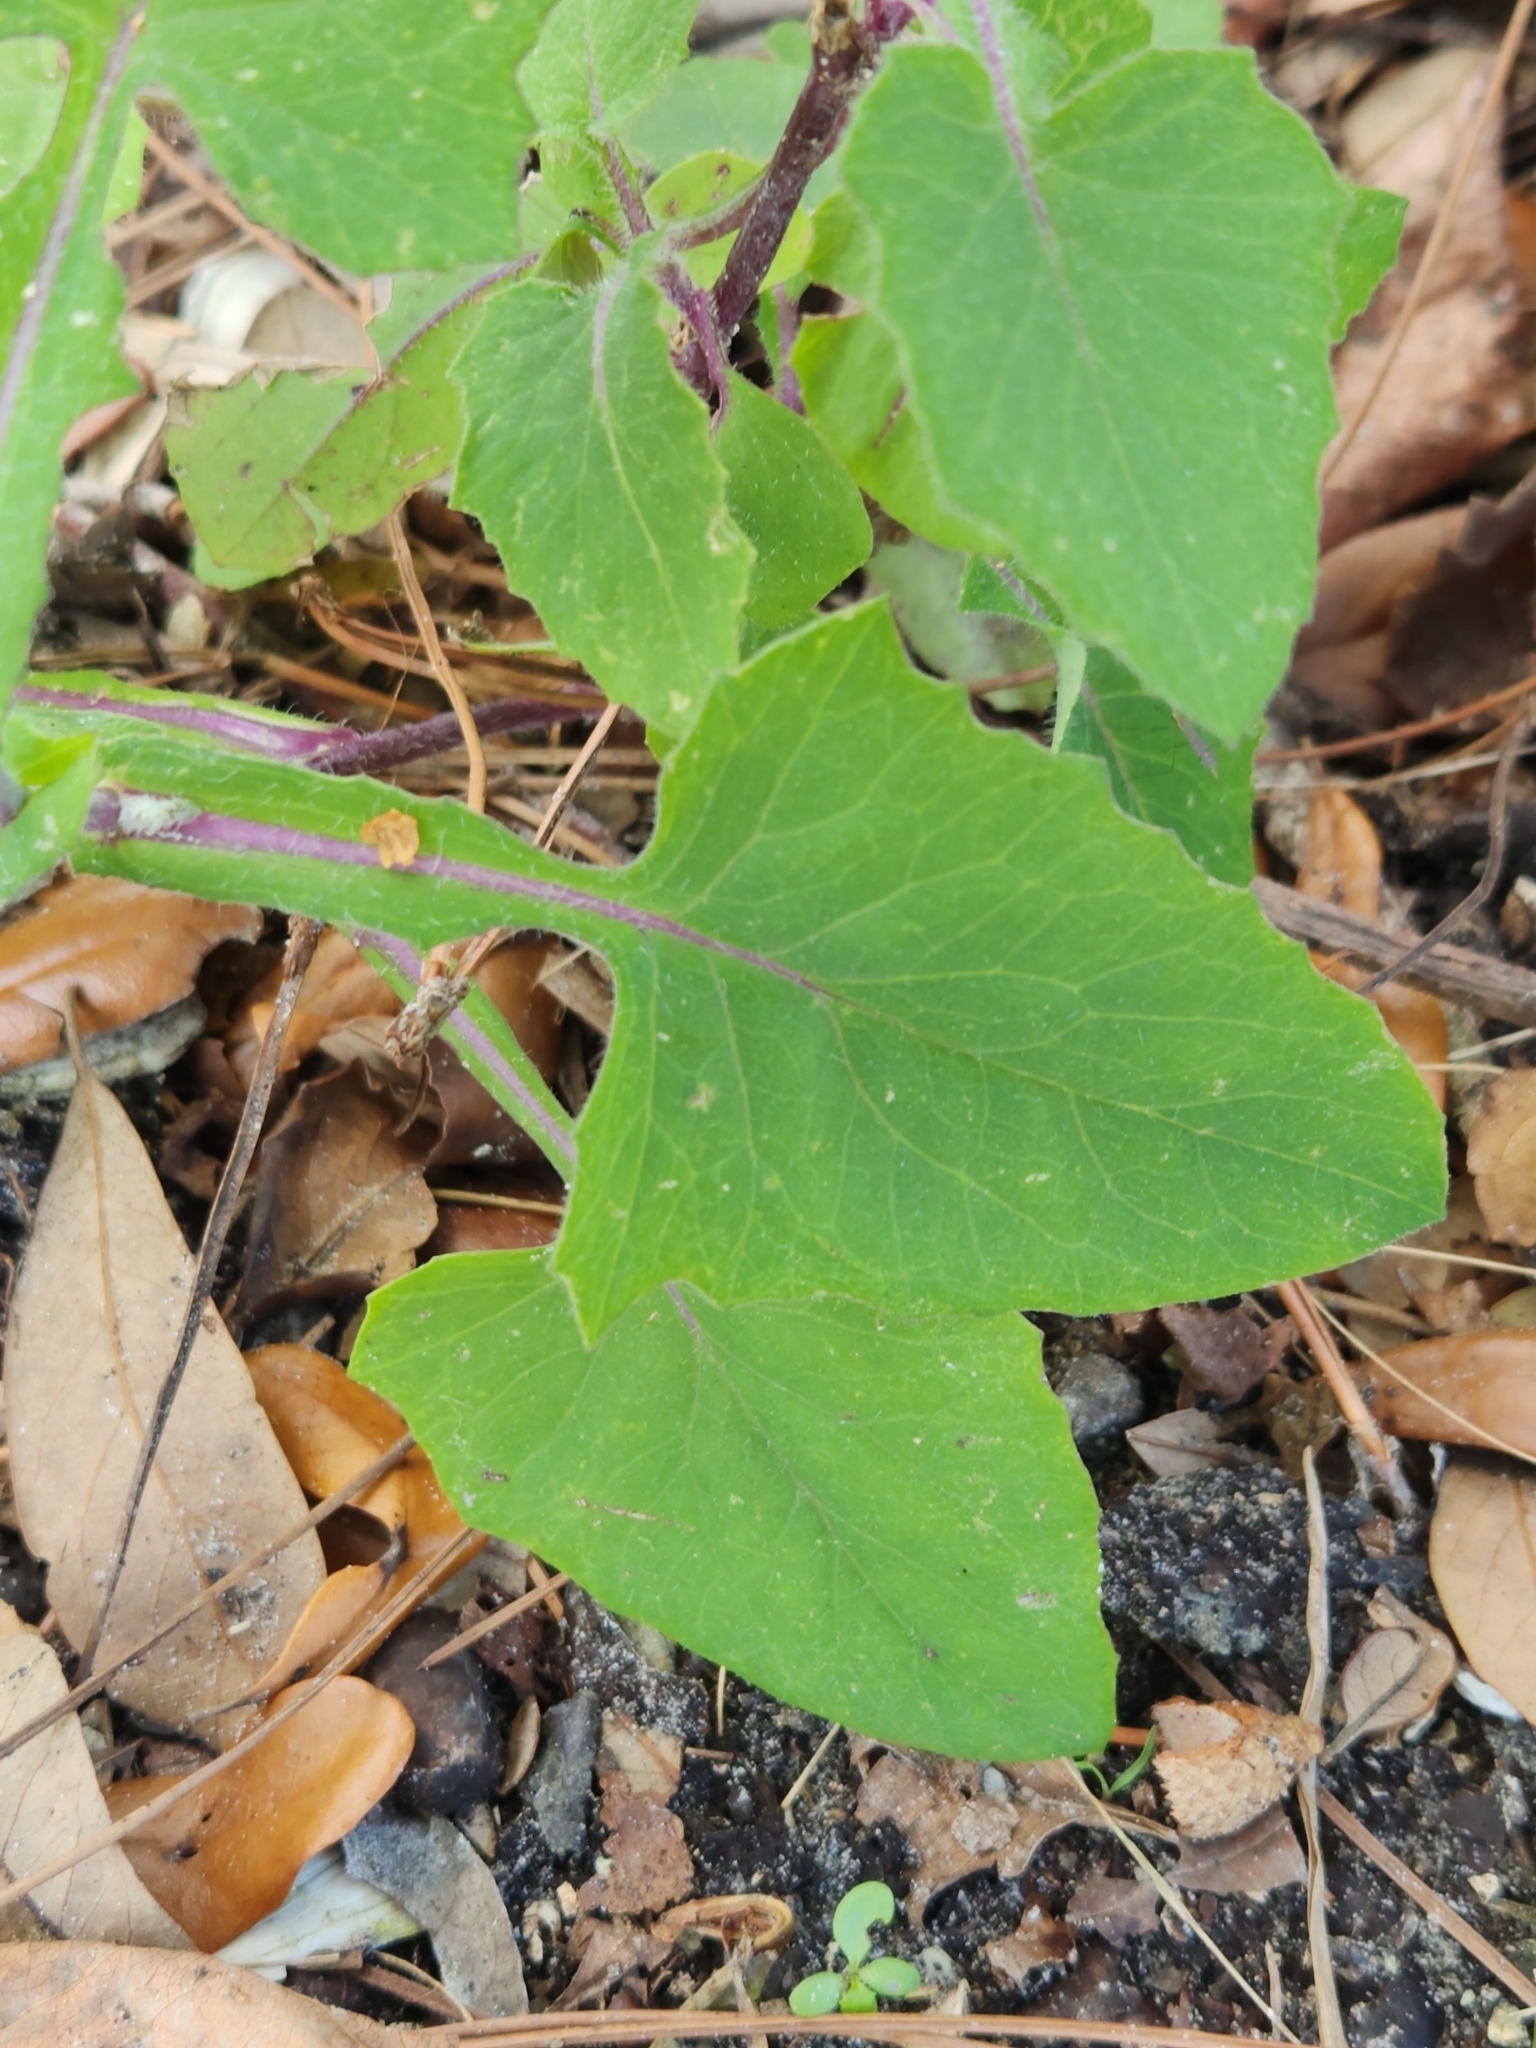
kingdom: Plantae
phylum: Tracheophyta
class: Magnoliopsida
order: Asterales
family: Asteraceae
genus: Emilia
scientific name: Emilia sonchifolia
